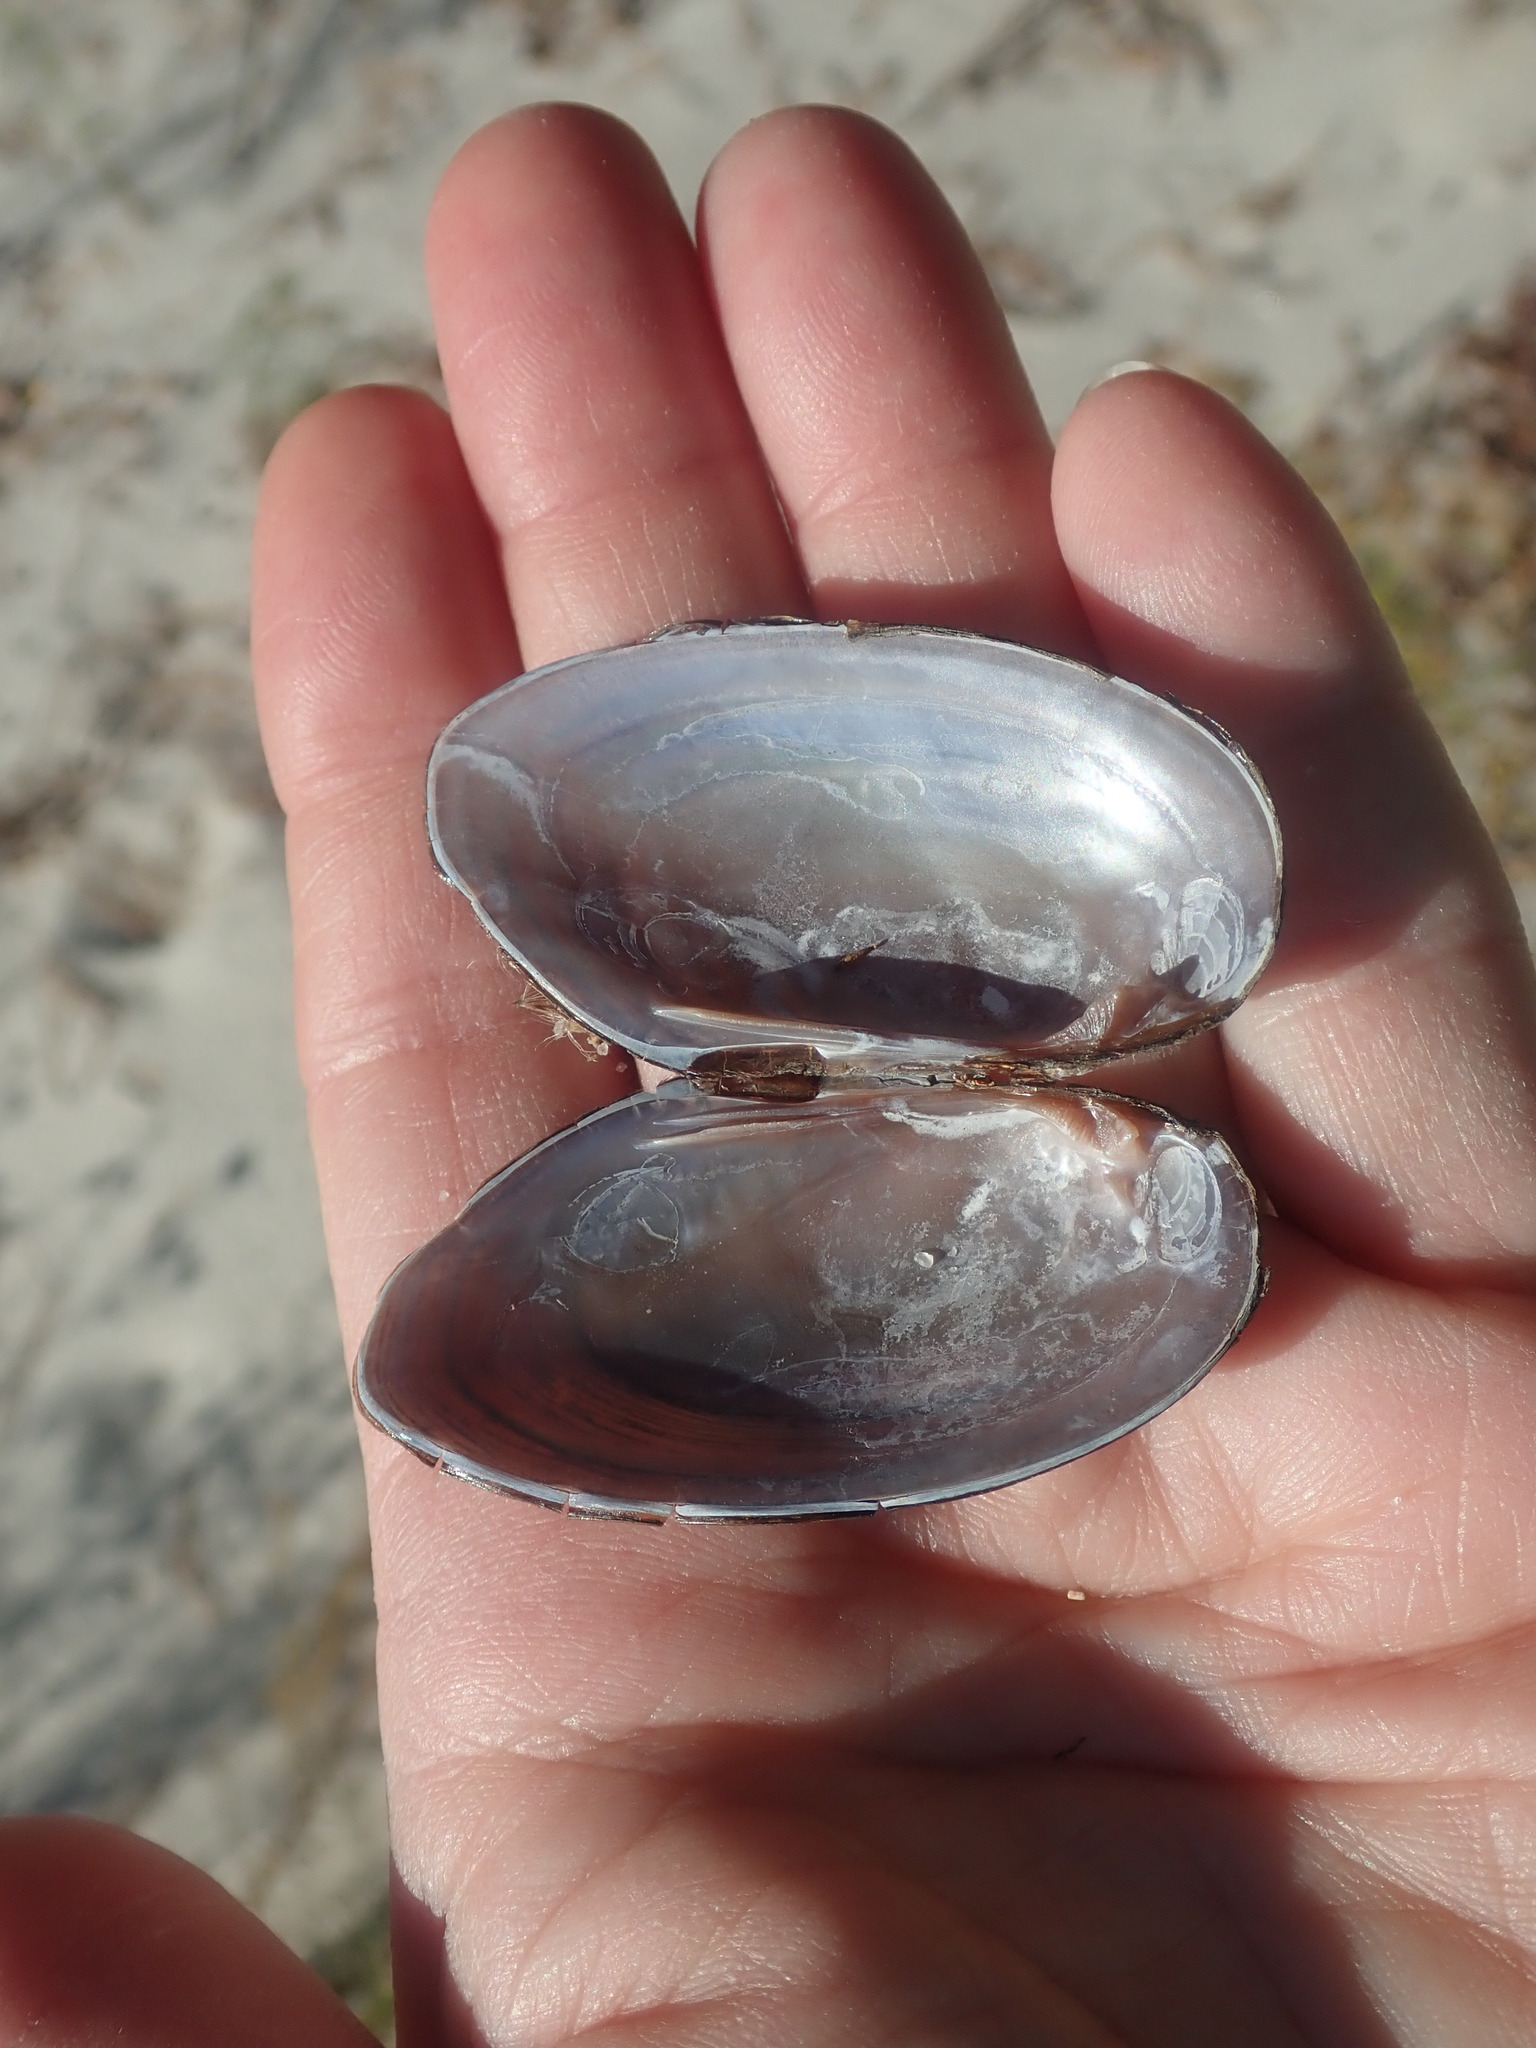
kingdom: Animalia
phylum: Mollusca
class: Bivalvia
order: Unionida
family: Unionidae
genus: Elliptio
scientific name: Elliptio complanata
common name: Eastern elliptio
